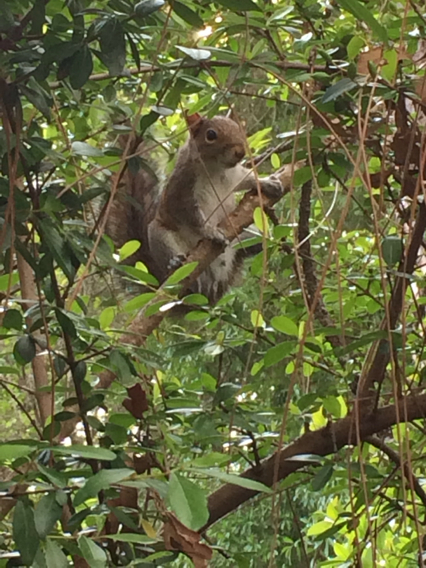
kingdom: Animalia
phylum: Chordata
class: Mammalia
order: Rodentia
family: Sciuridae
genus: Sciurus
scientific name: Sciurus carolinensis
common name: Eastern gray squirrel
